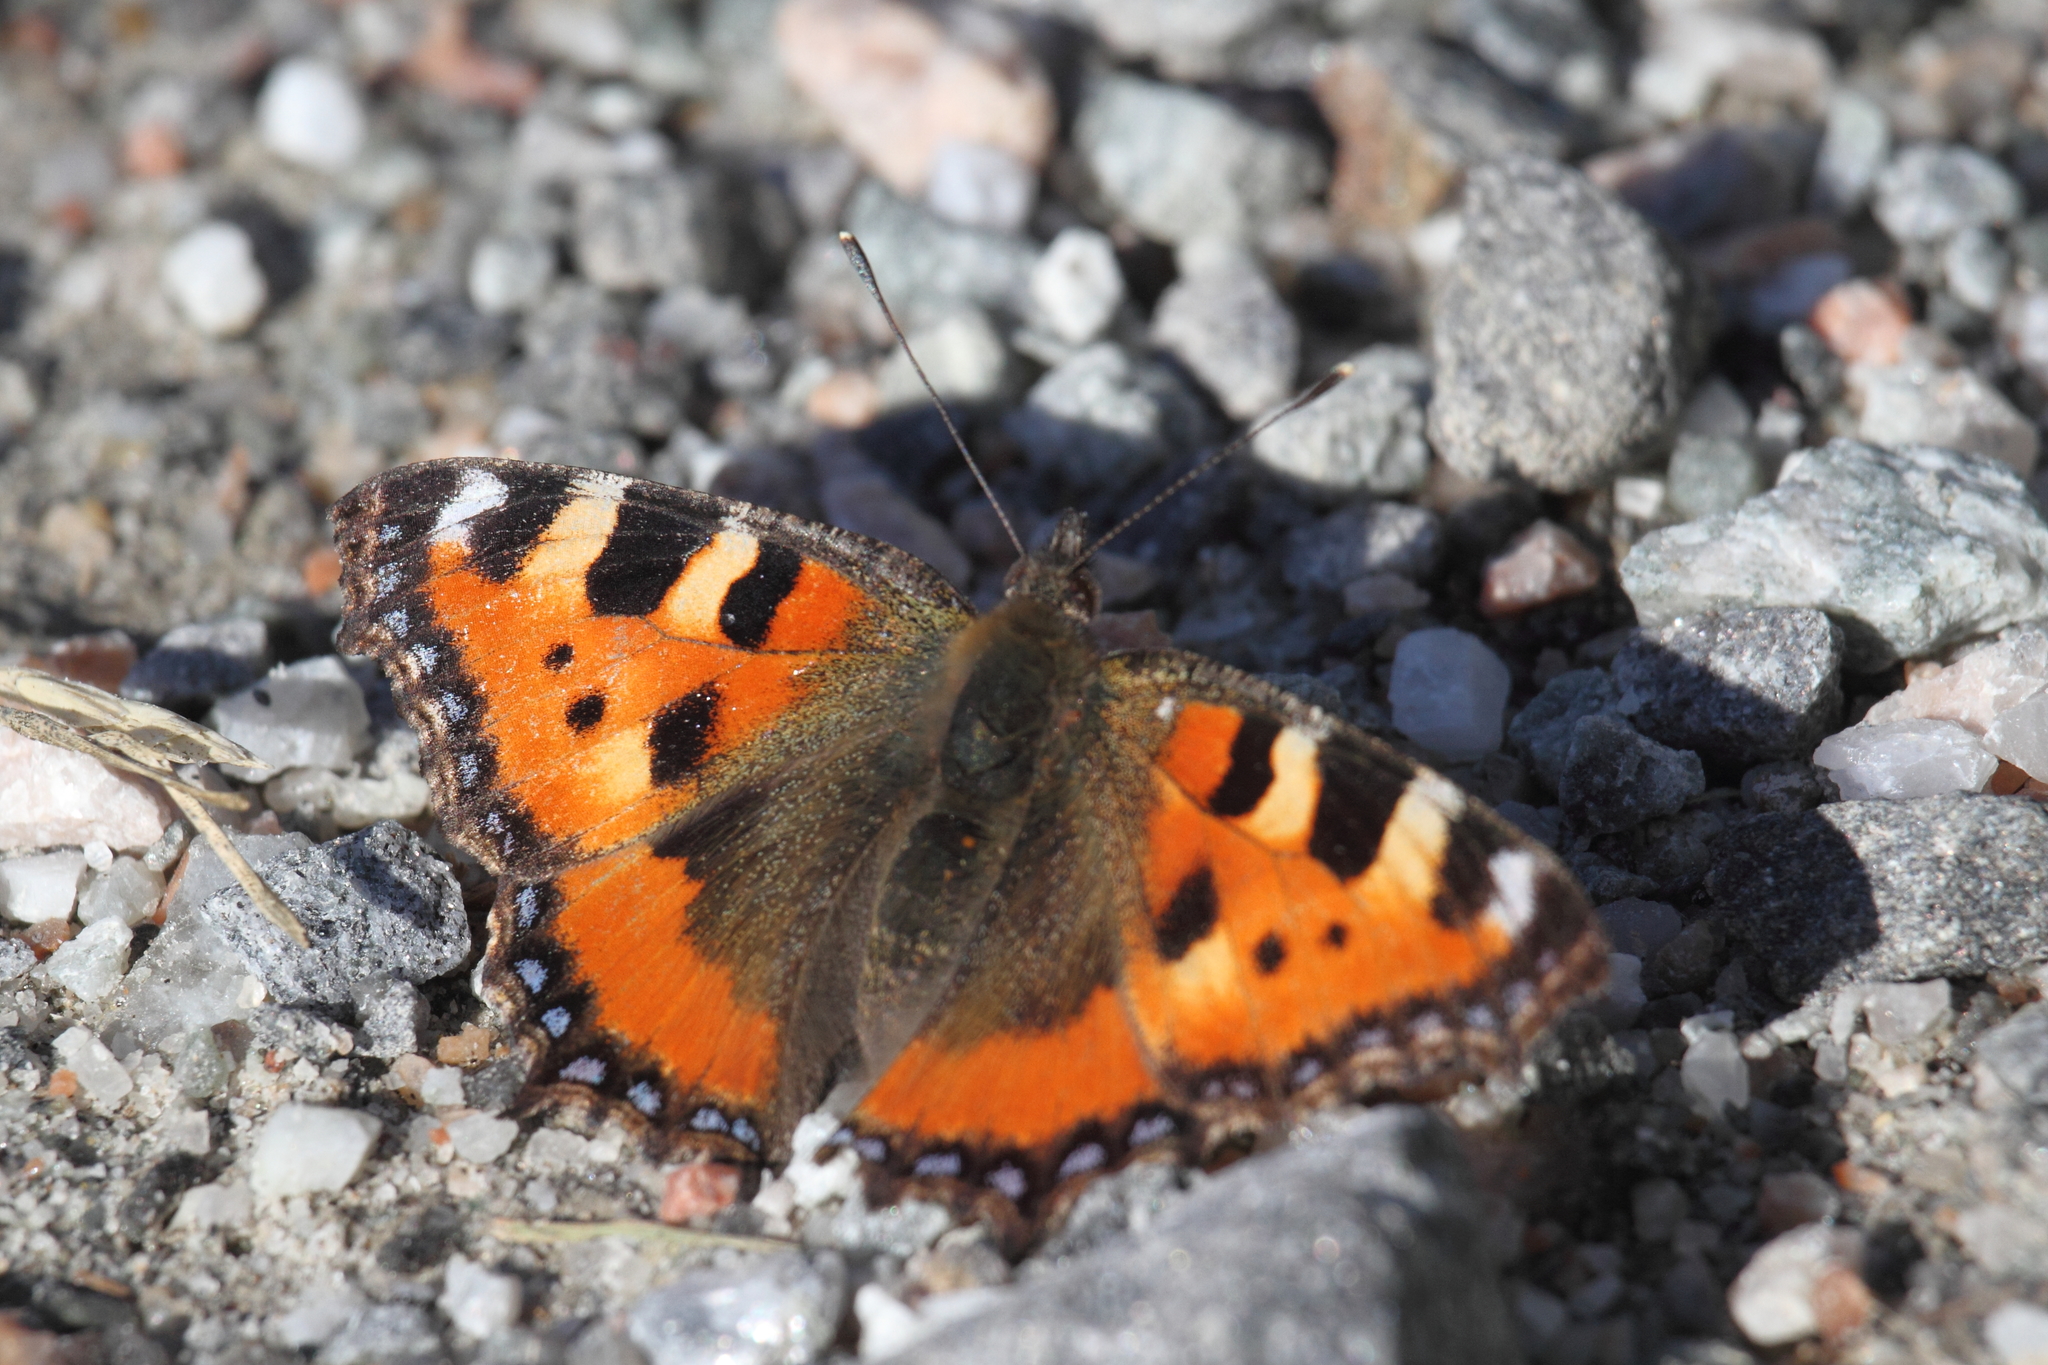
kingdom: Animalia
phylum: Arthropoda
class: Insecta
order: Lepidoptera
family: Nymphalidae
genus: Aglais
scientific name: Aglais urticae
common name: Small tortoiseshell
